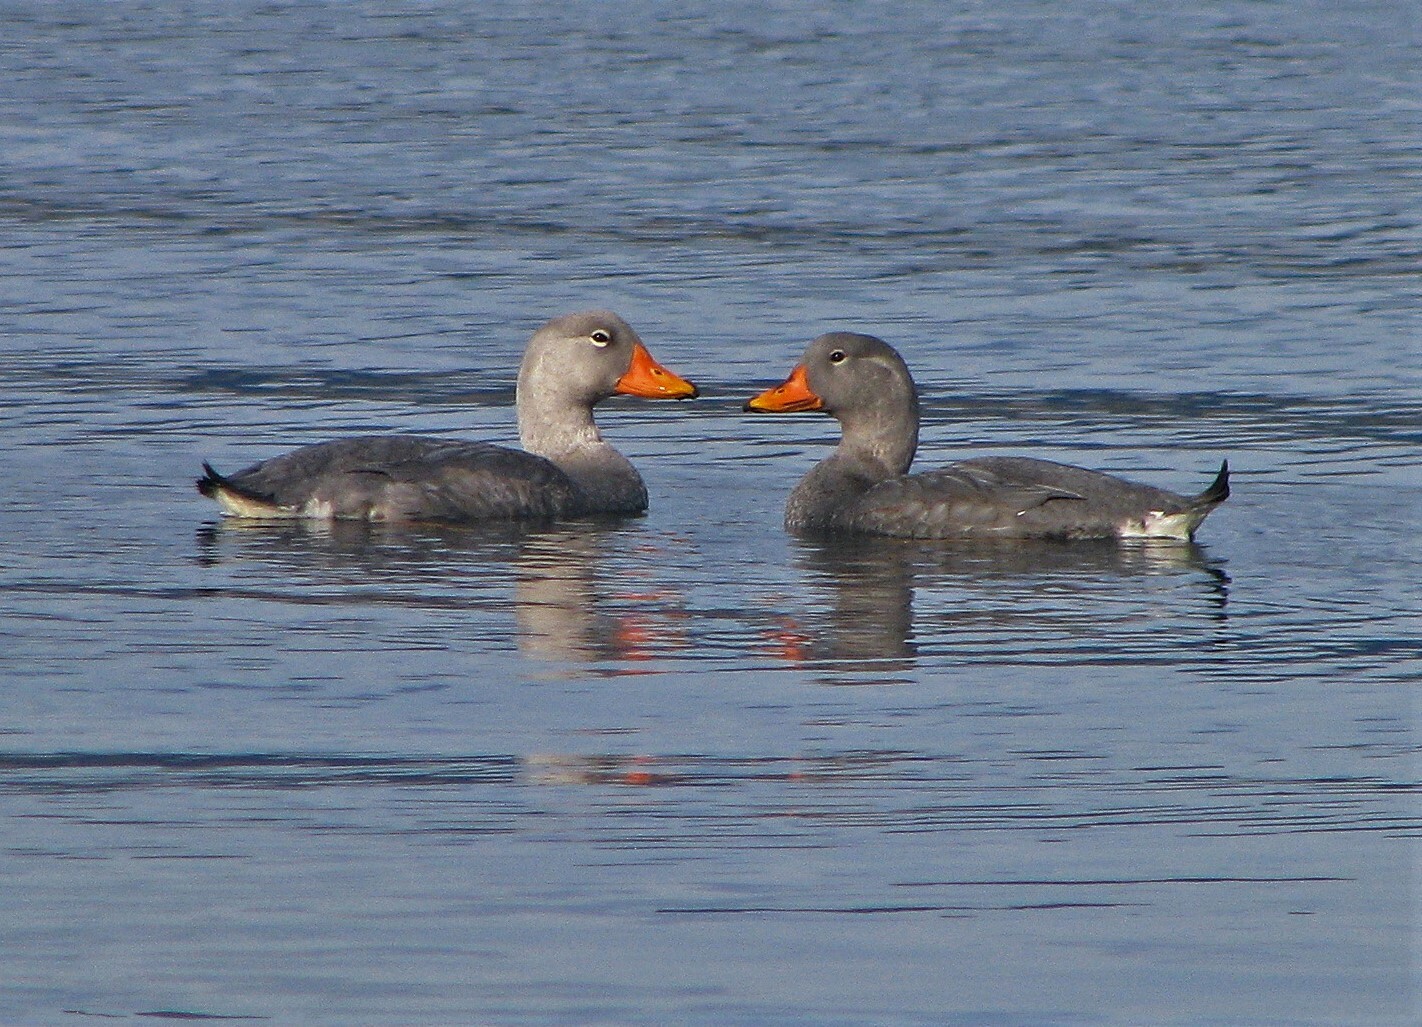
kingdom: Animalia
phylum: Chordata
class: Aves
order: Anseriformes
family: Anatidae
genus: Tachyeres
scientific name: Tachyeres pteneres
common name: Fuegian steamer duck
